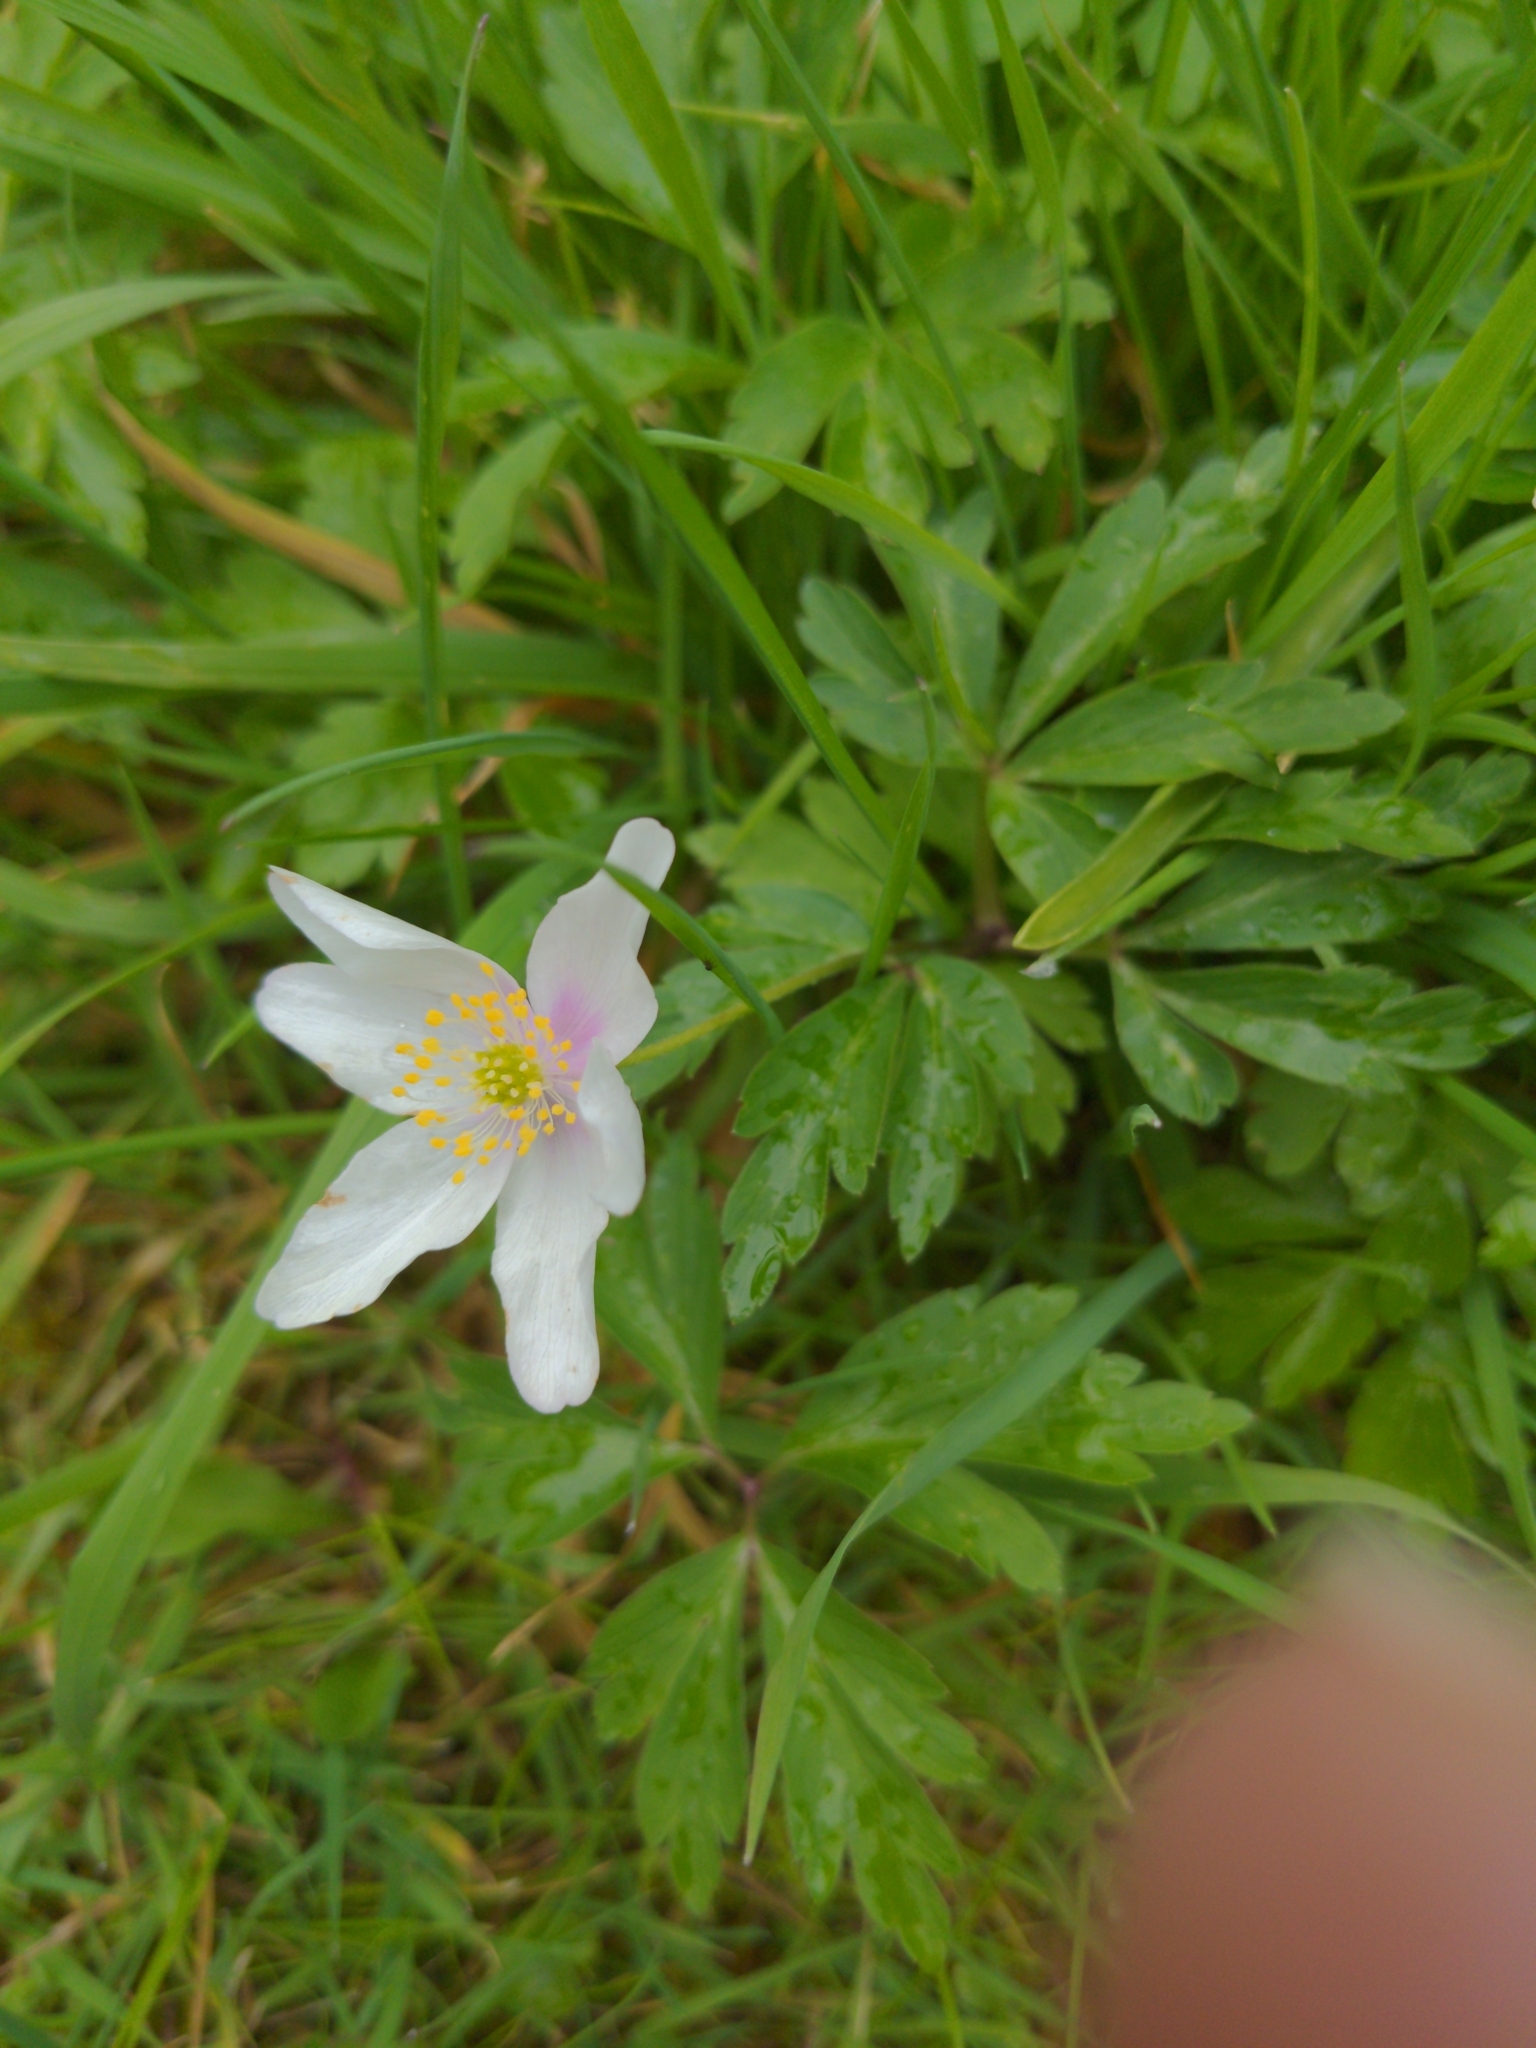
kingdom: Plantae
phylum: Tracheophyta
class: Magnoliopsida
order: Ranunculales
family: Ranunculaceae
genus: Anemone
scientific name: Anemone nemorosa
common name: Wood anemone
